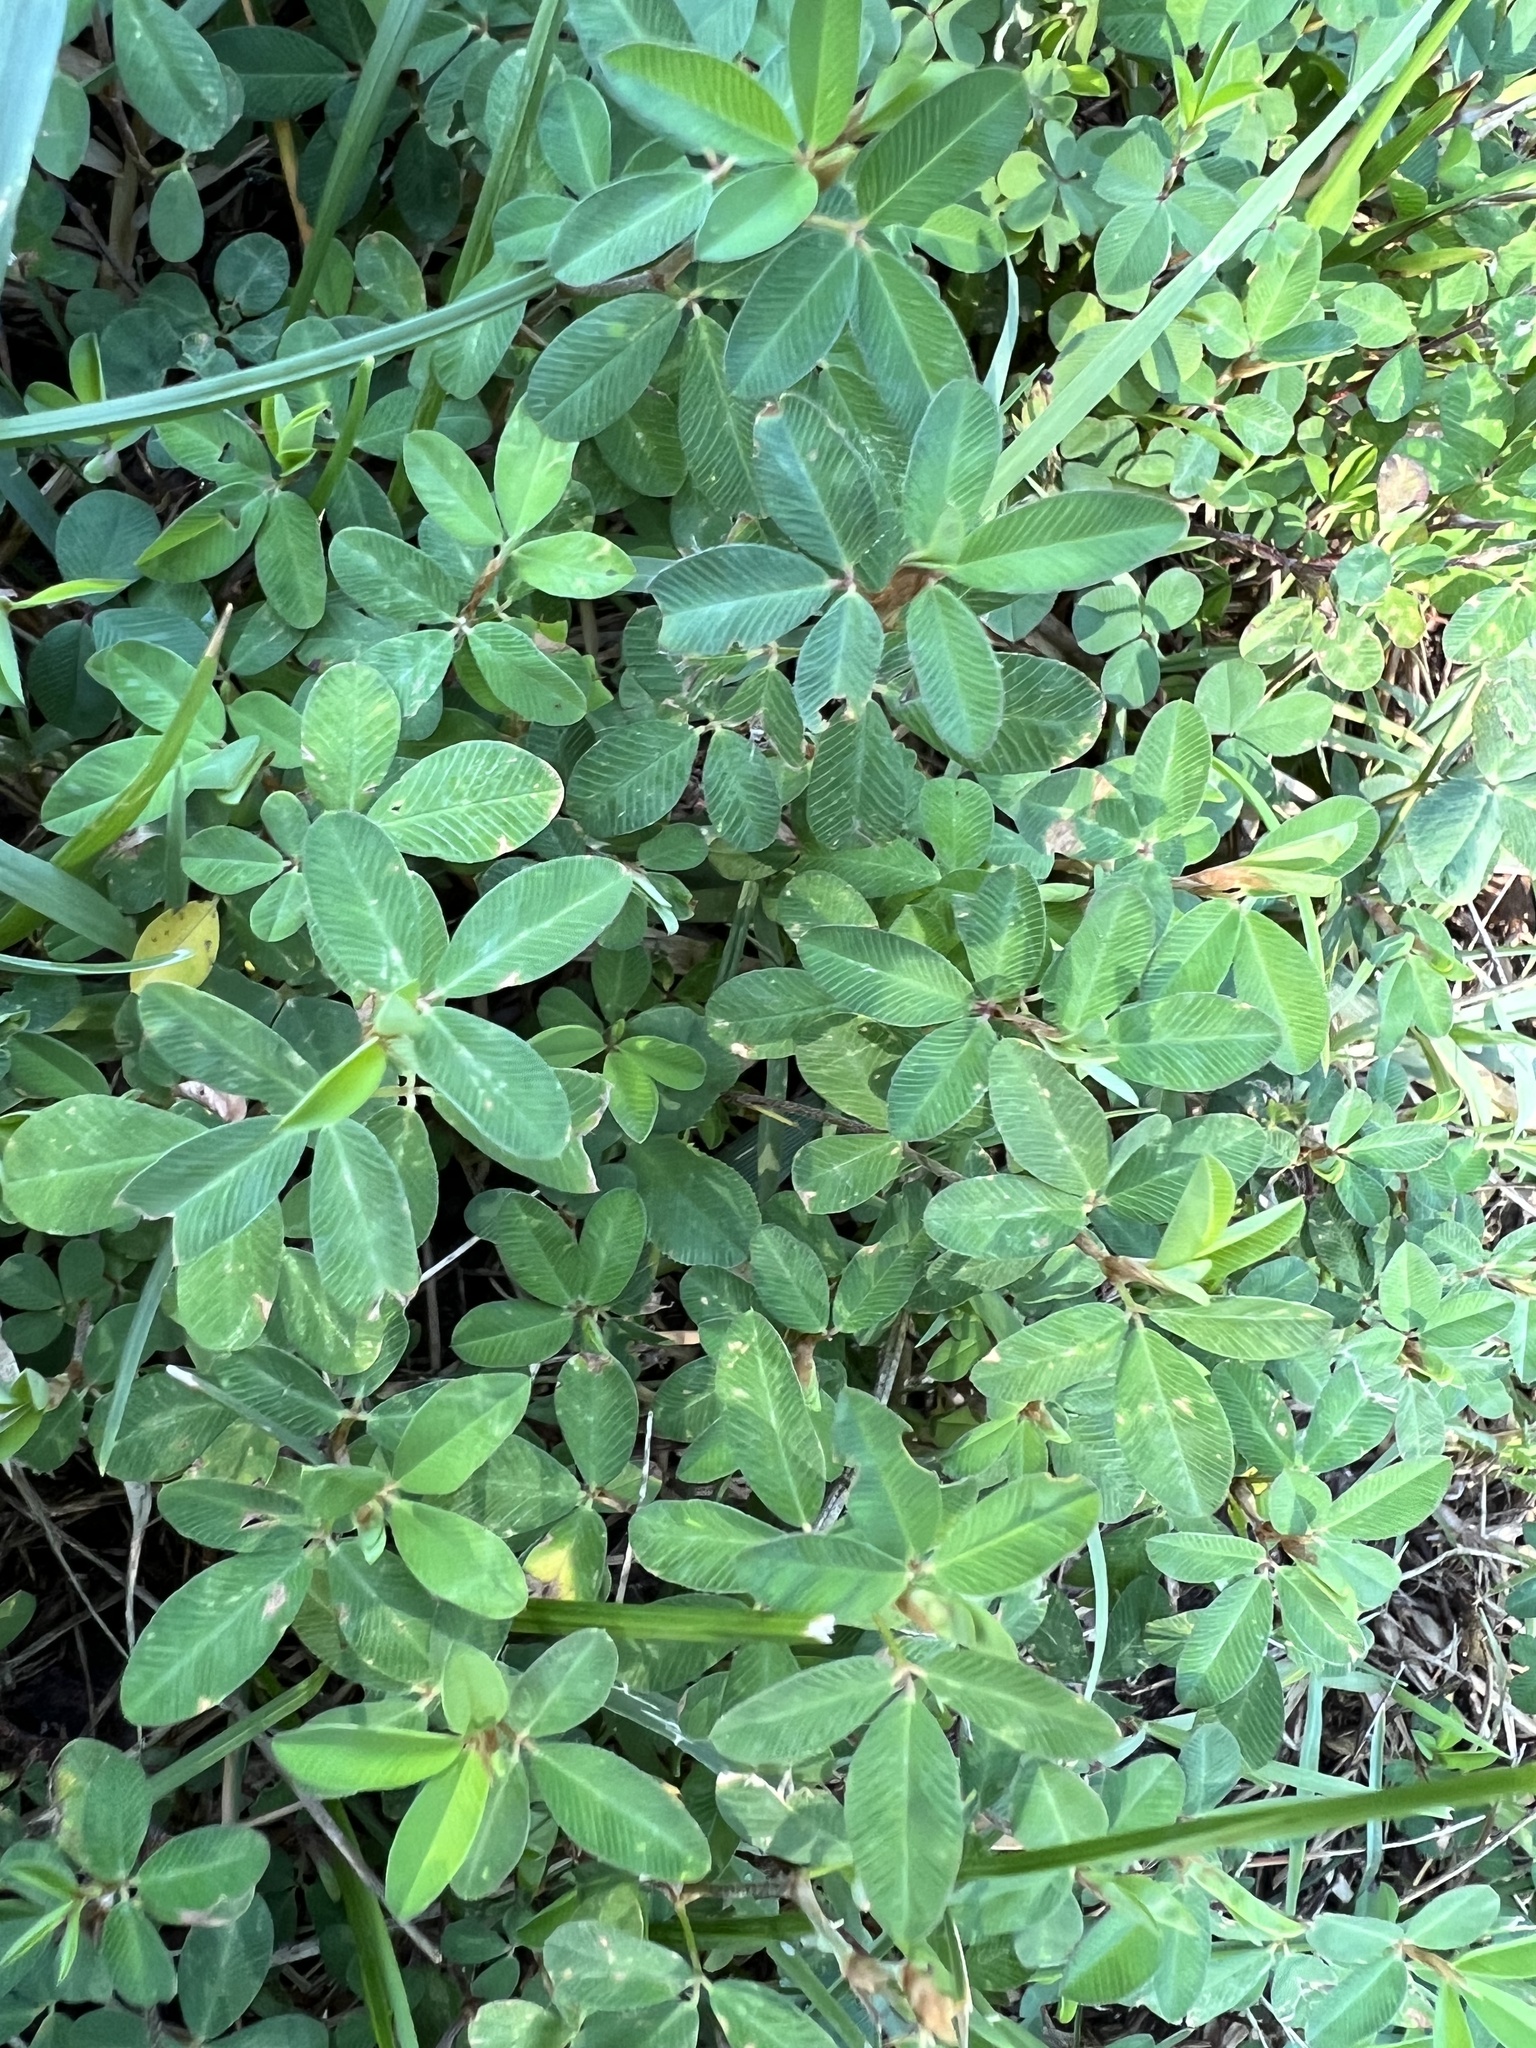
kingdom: Plantae
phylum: Tracheophyta
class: Magnoliopsida
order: Fabales
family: Fabaceae
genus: Kummerowia
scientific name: Kummerowia striata
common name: Japanese clover
